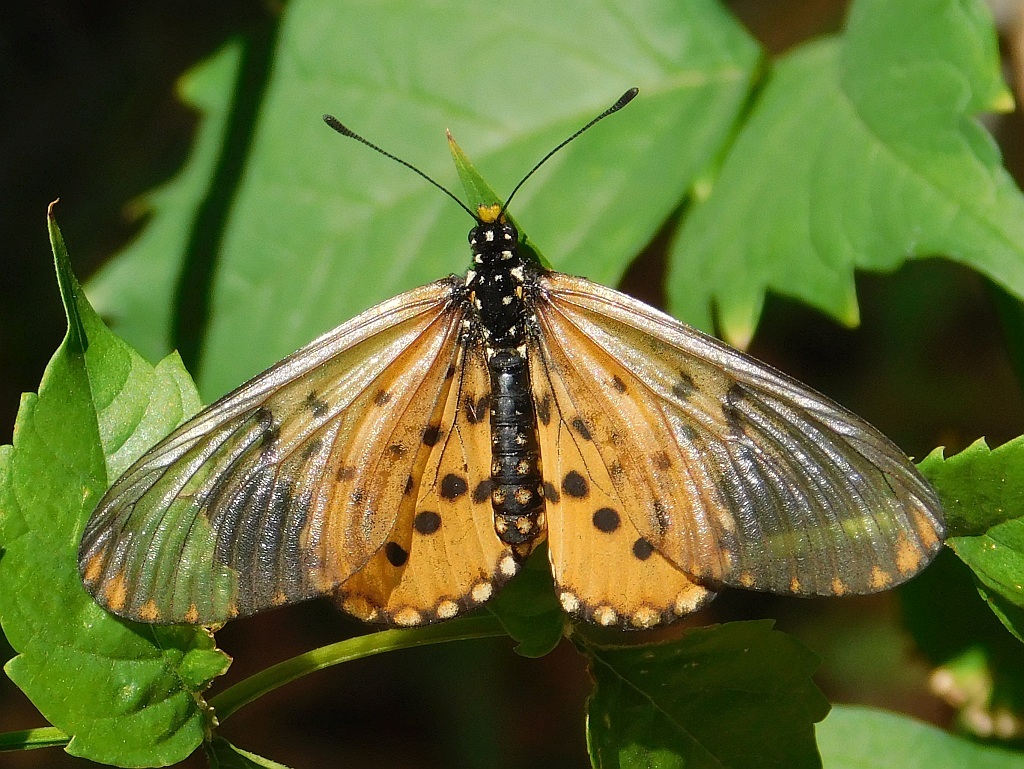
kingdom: Animalia
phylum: Arthropoda
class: Insecta
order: Lepidoptera
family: Nymphalidae
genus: Acraea
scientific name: Acraea horta
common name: Garden acraea
